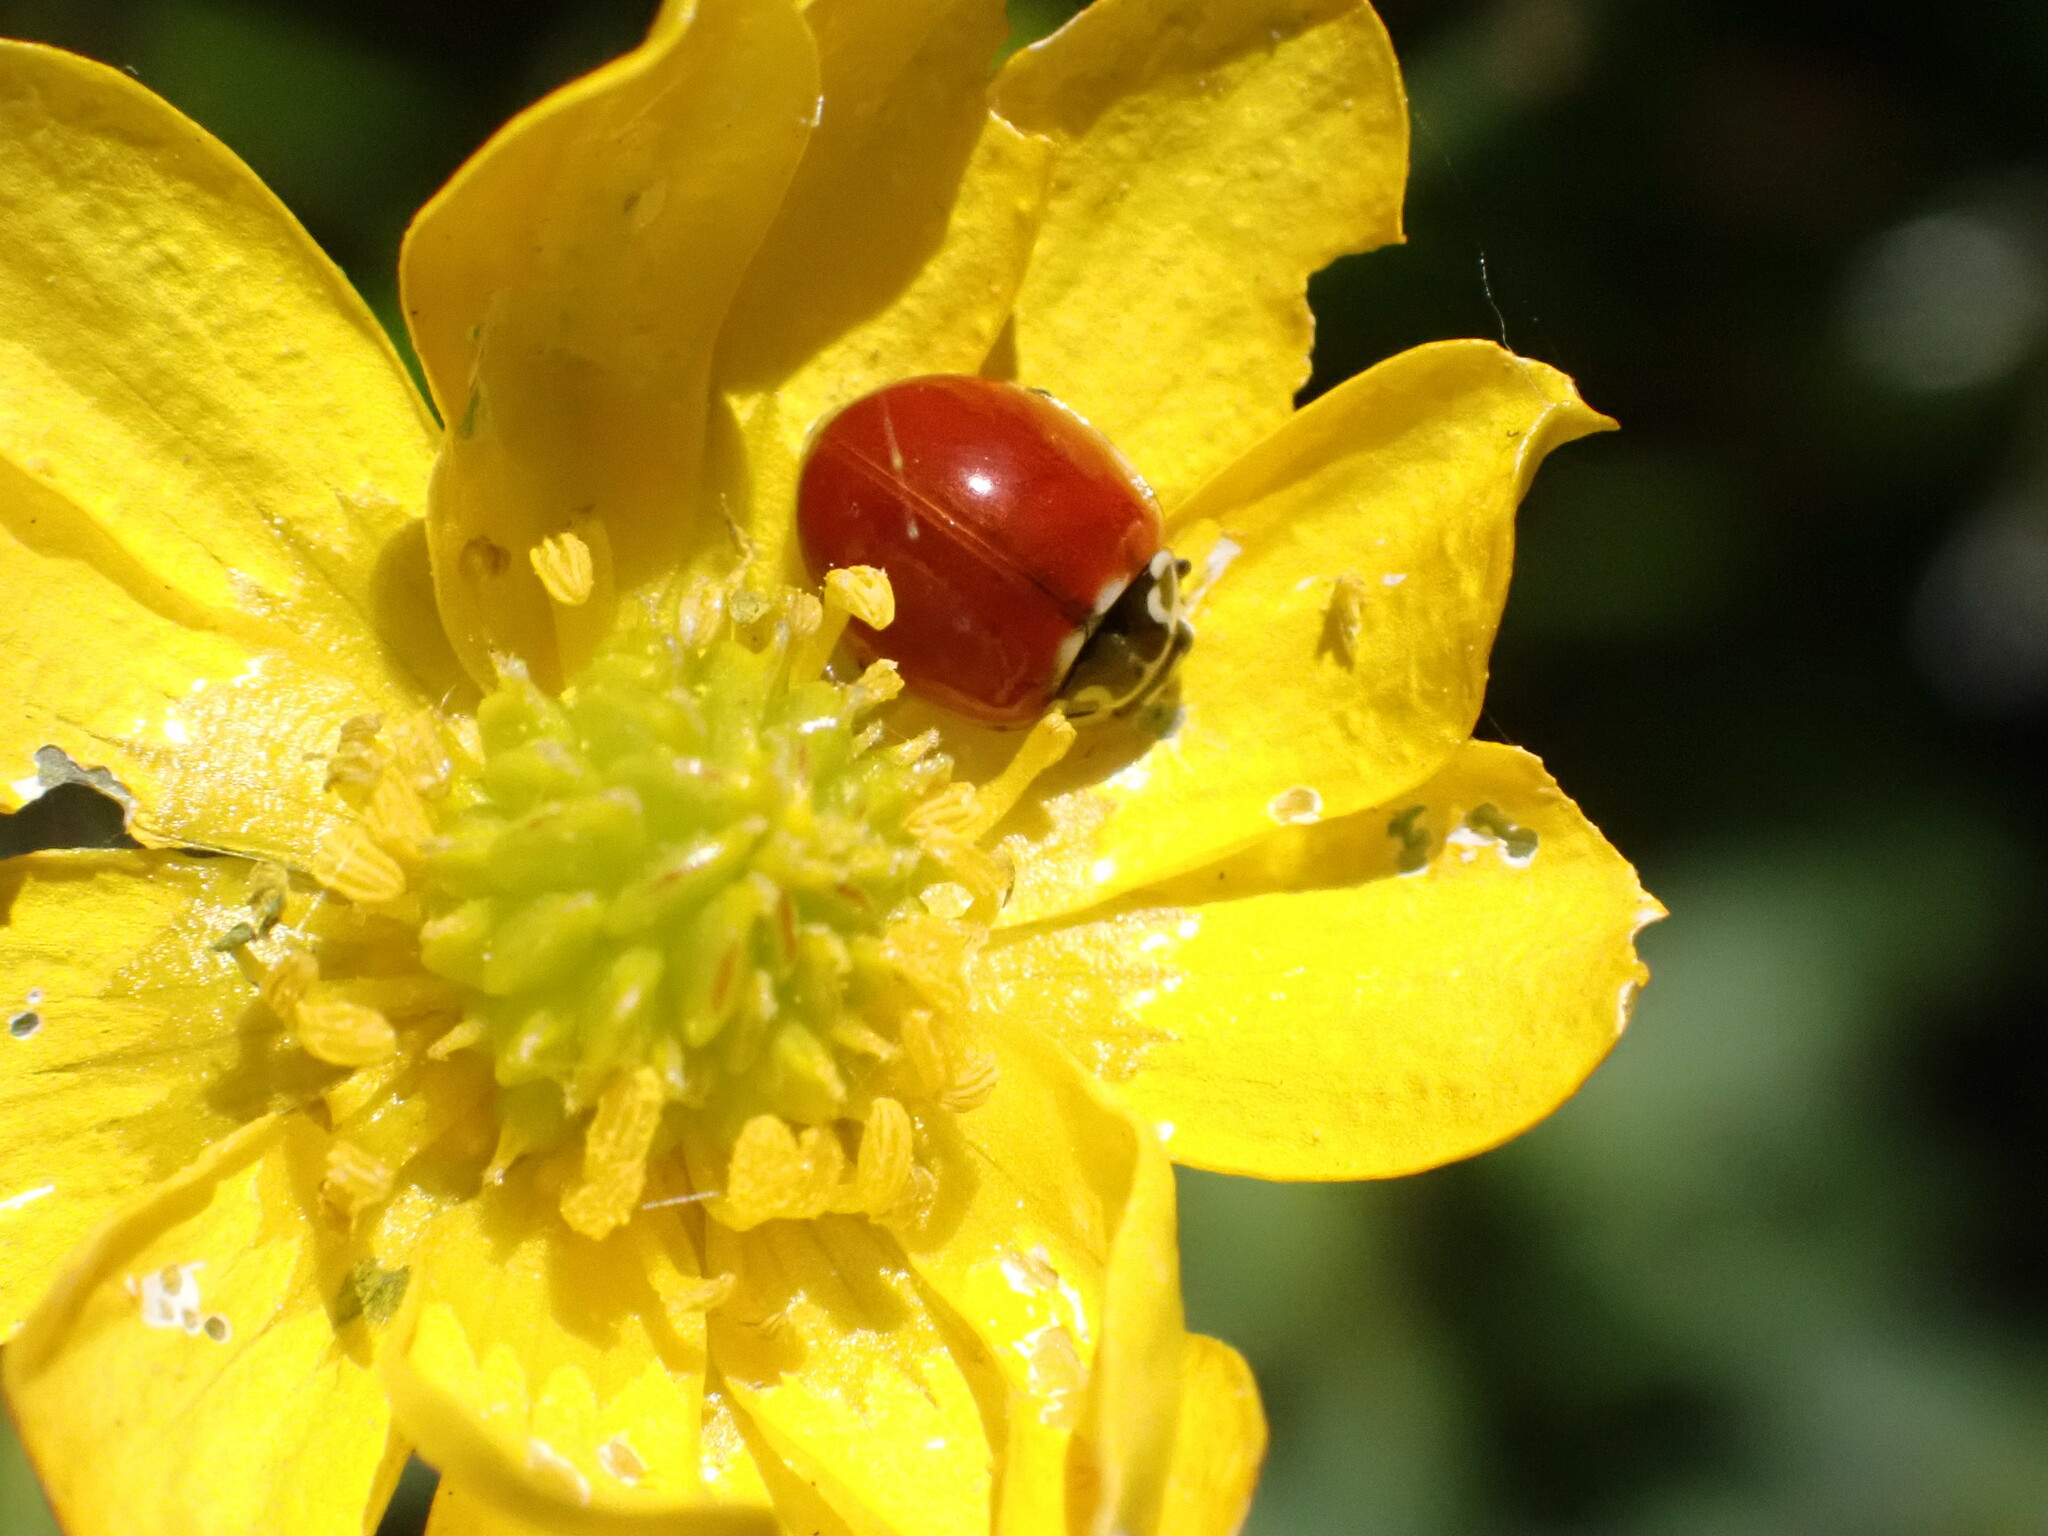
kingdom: Animalia
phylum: Arthropoda
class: Insecta
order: Coleoptera
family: Coccinellidae
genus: Cycloneda
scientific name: Cycloneda polita
